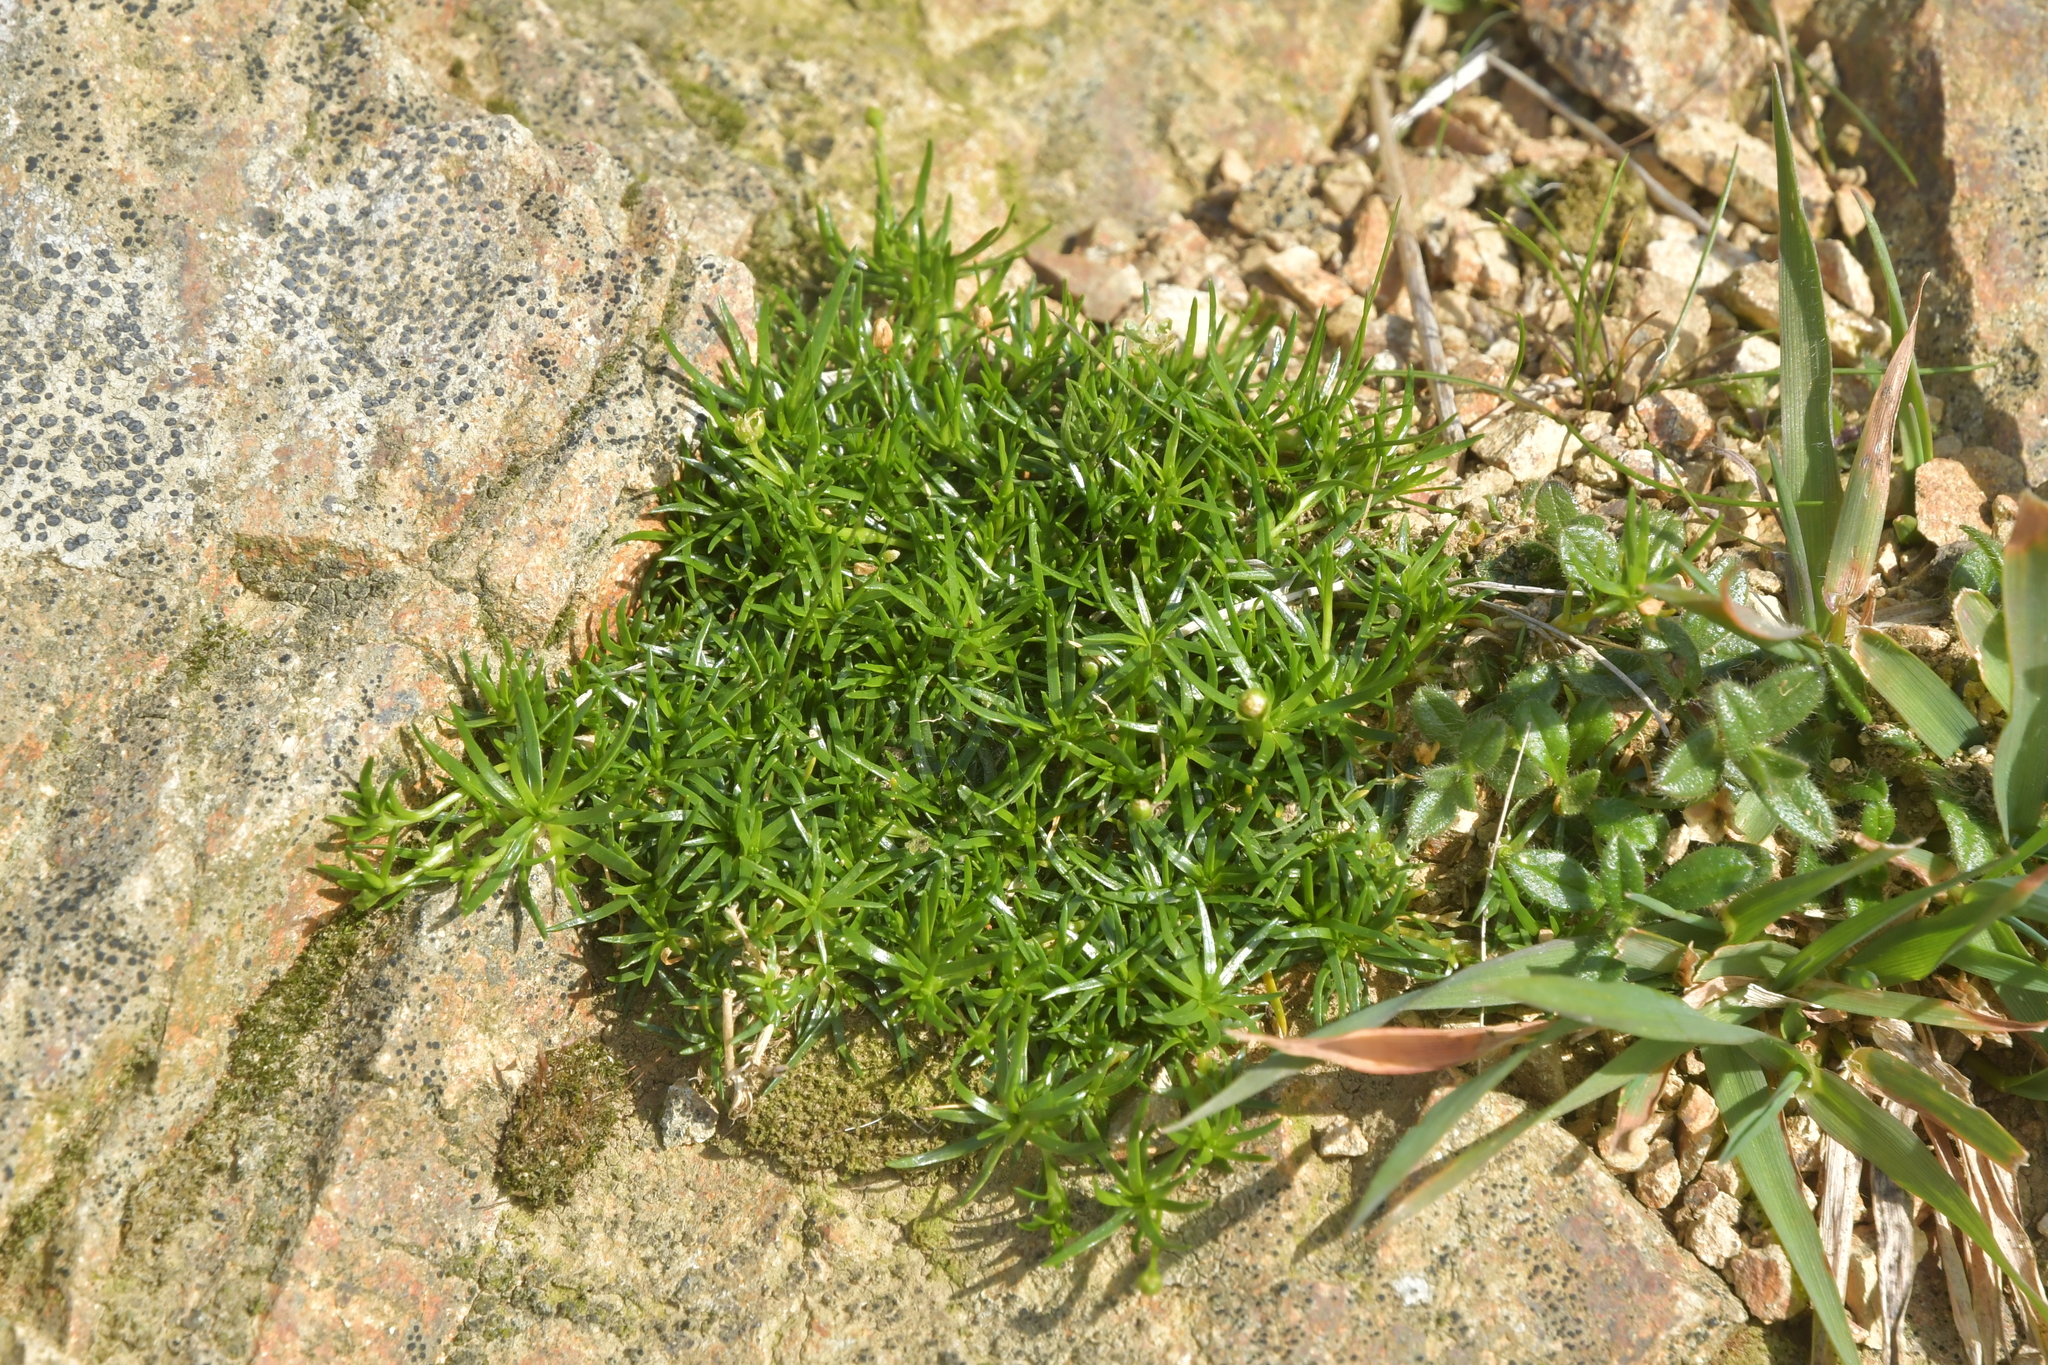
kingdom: Plantae
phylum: Tracheophyta
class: Magnoliopsida
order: Caryophyllales
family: Caryophyllaceae
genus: Sagina
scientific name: Sagina procumbens
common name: Procumbent pearlwort
